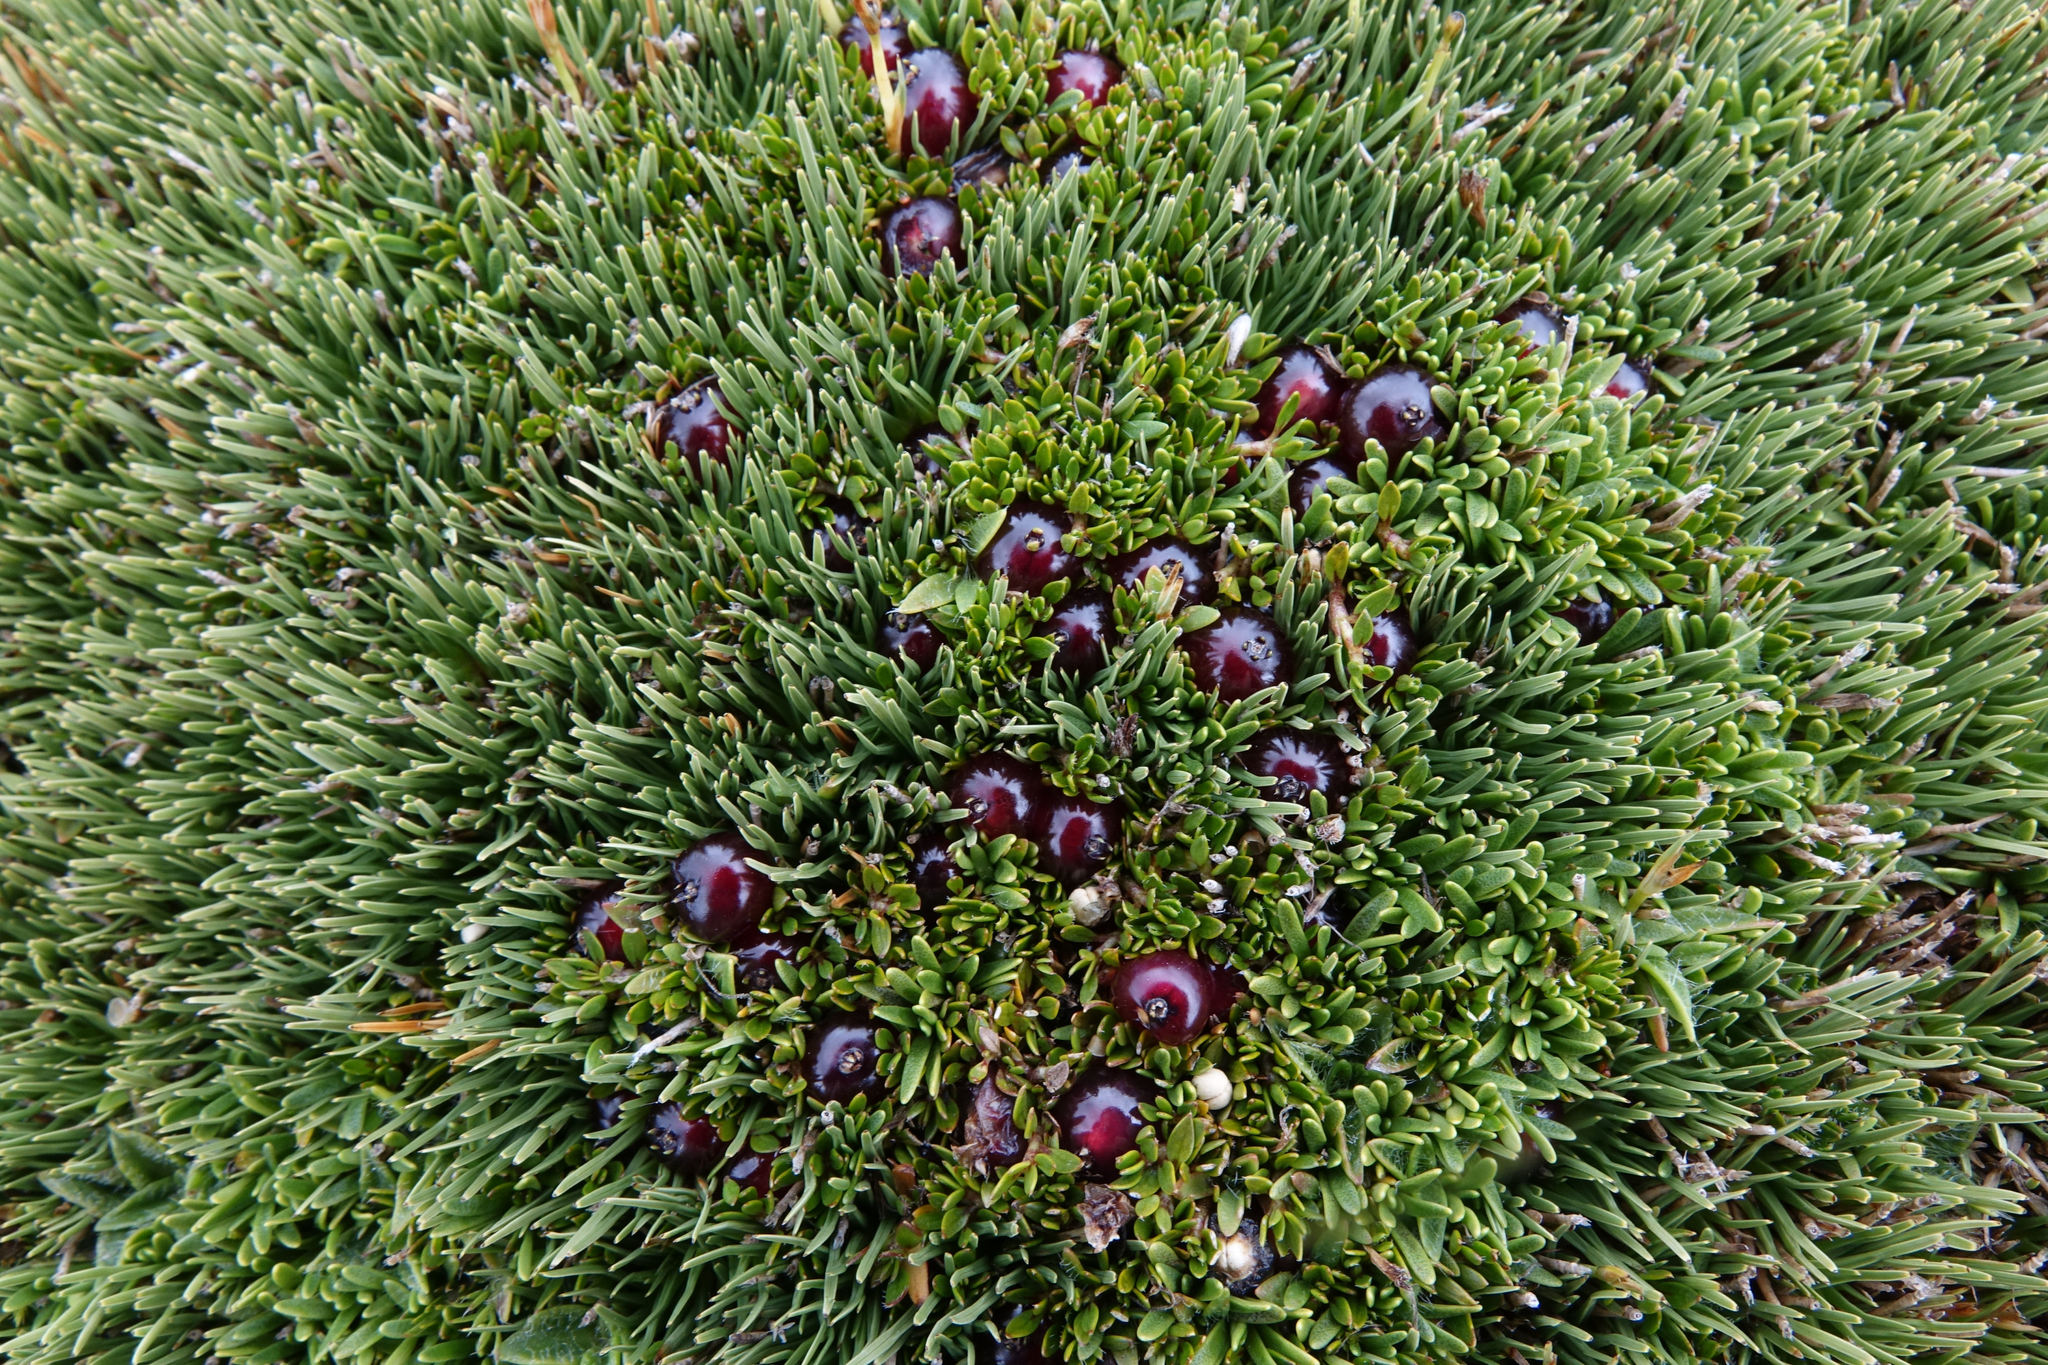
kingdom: Plantae
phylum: Tracheophyta
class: Magnoliopsida
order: Gentianales
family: Rubiaceae
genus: Coprosma
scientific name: Coprosma atropurpurea
